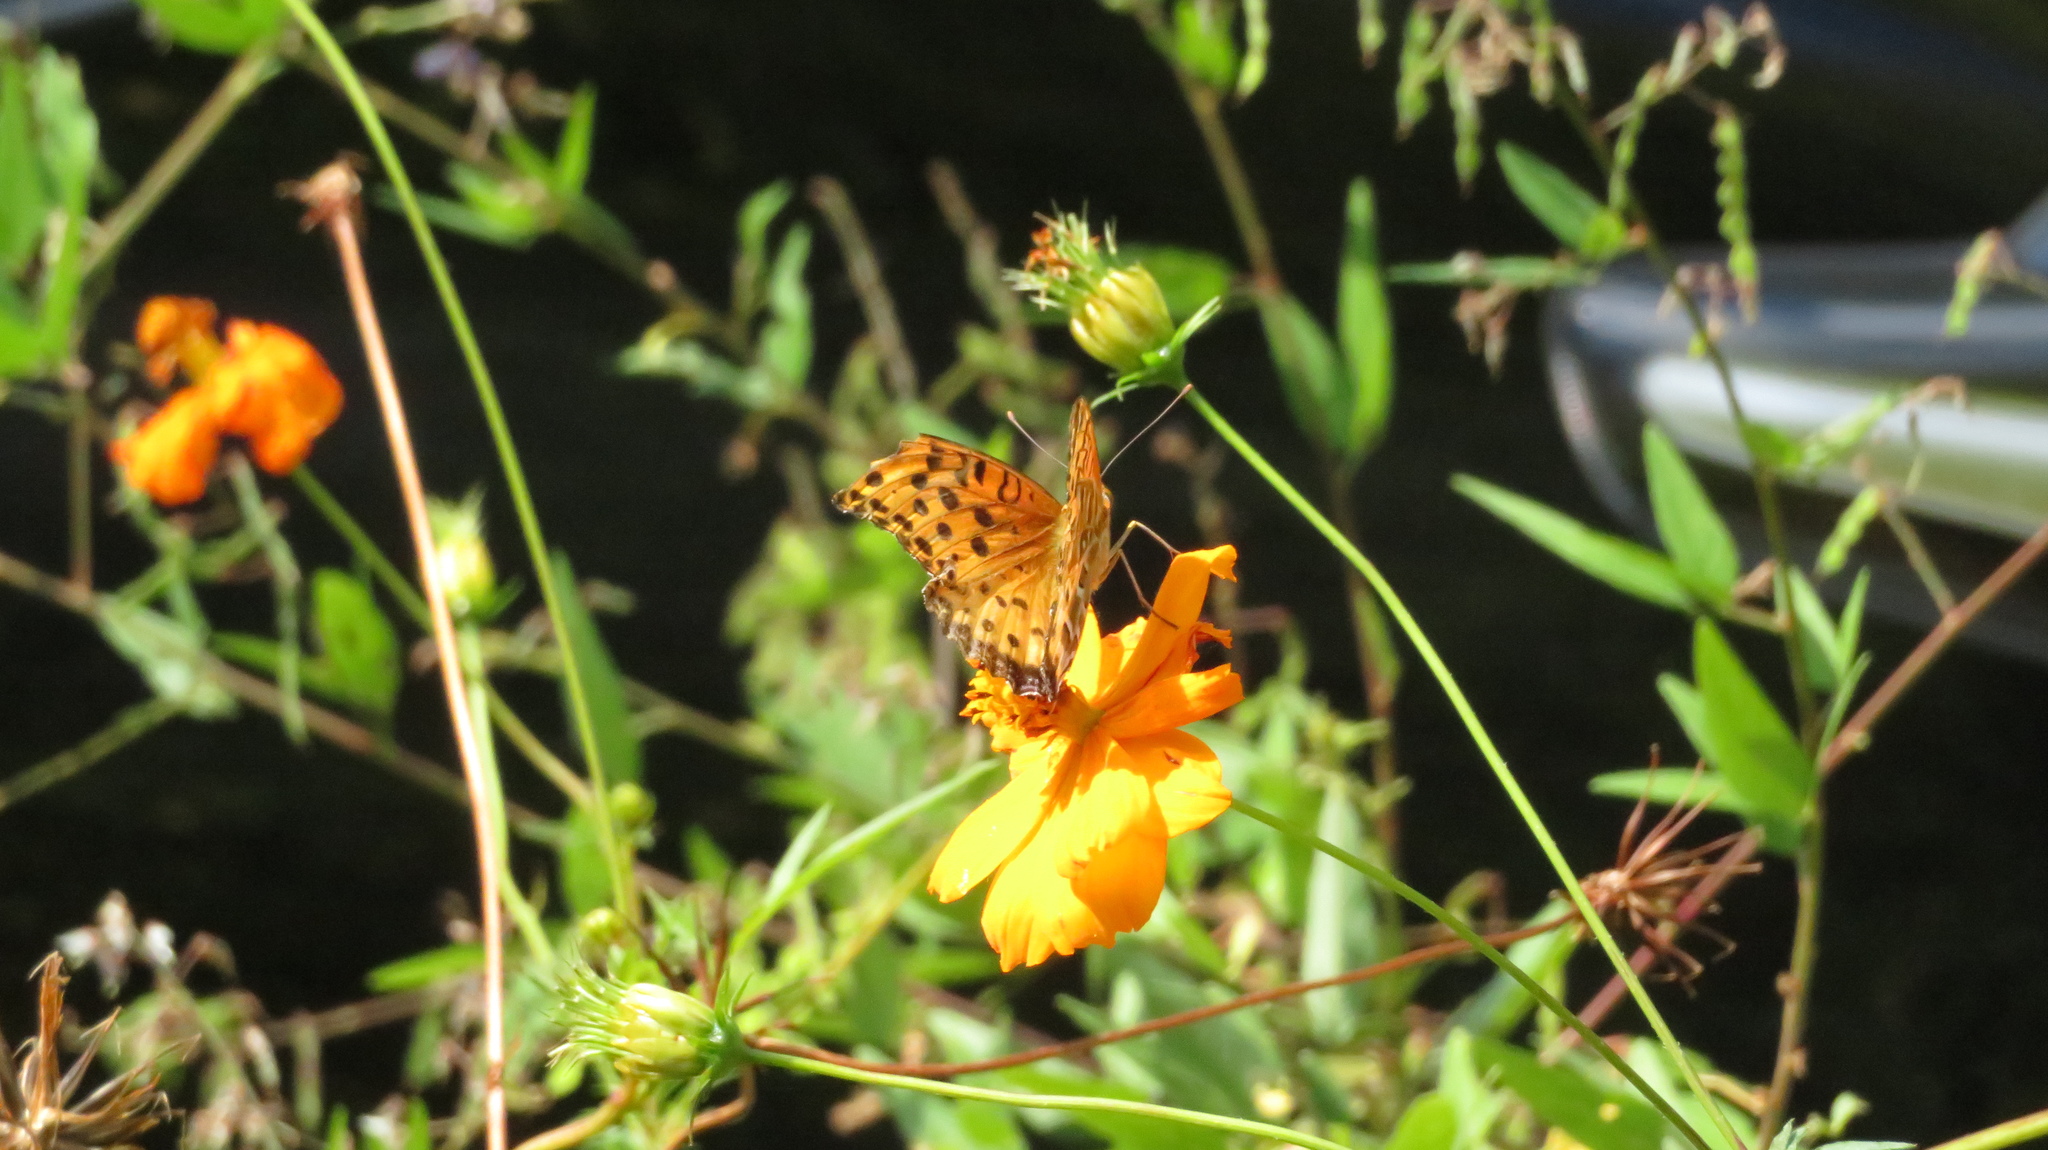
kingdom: Animalia
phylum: Arthropoda
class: Insecta
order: Lepidoptera
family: Nymphalidae
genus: Argynnis
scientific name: Argynnis hyperbius
